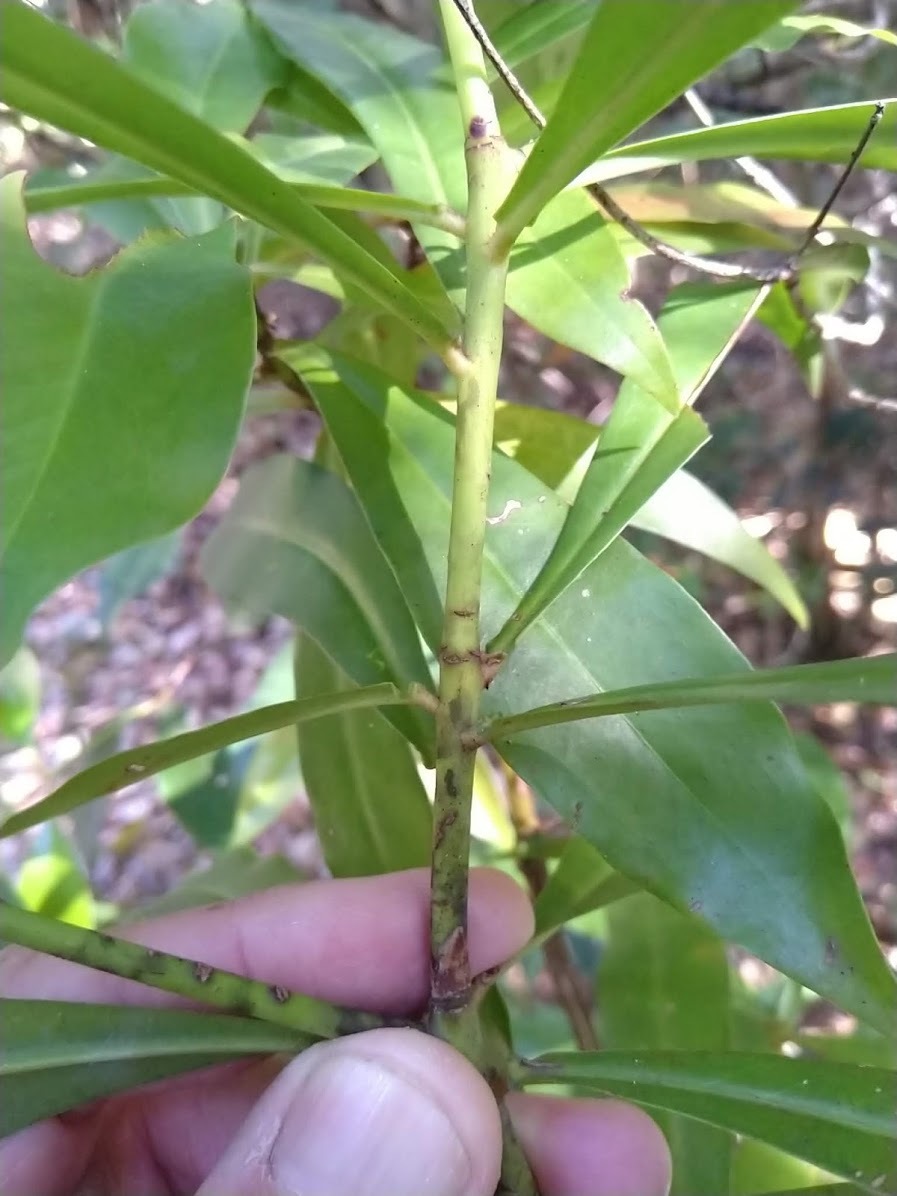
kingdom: Plantae
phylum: Tracheophyta
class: Magnoliopsida
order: Canellales
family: Winteraceae
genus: Drimys
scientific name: Drimys insipida
